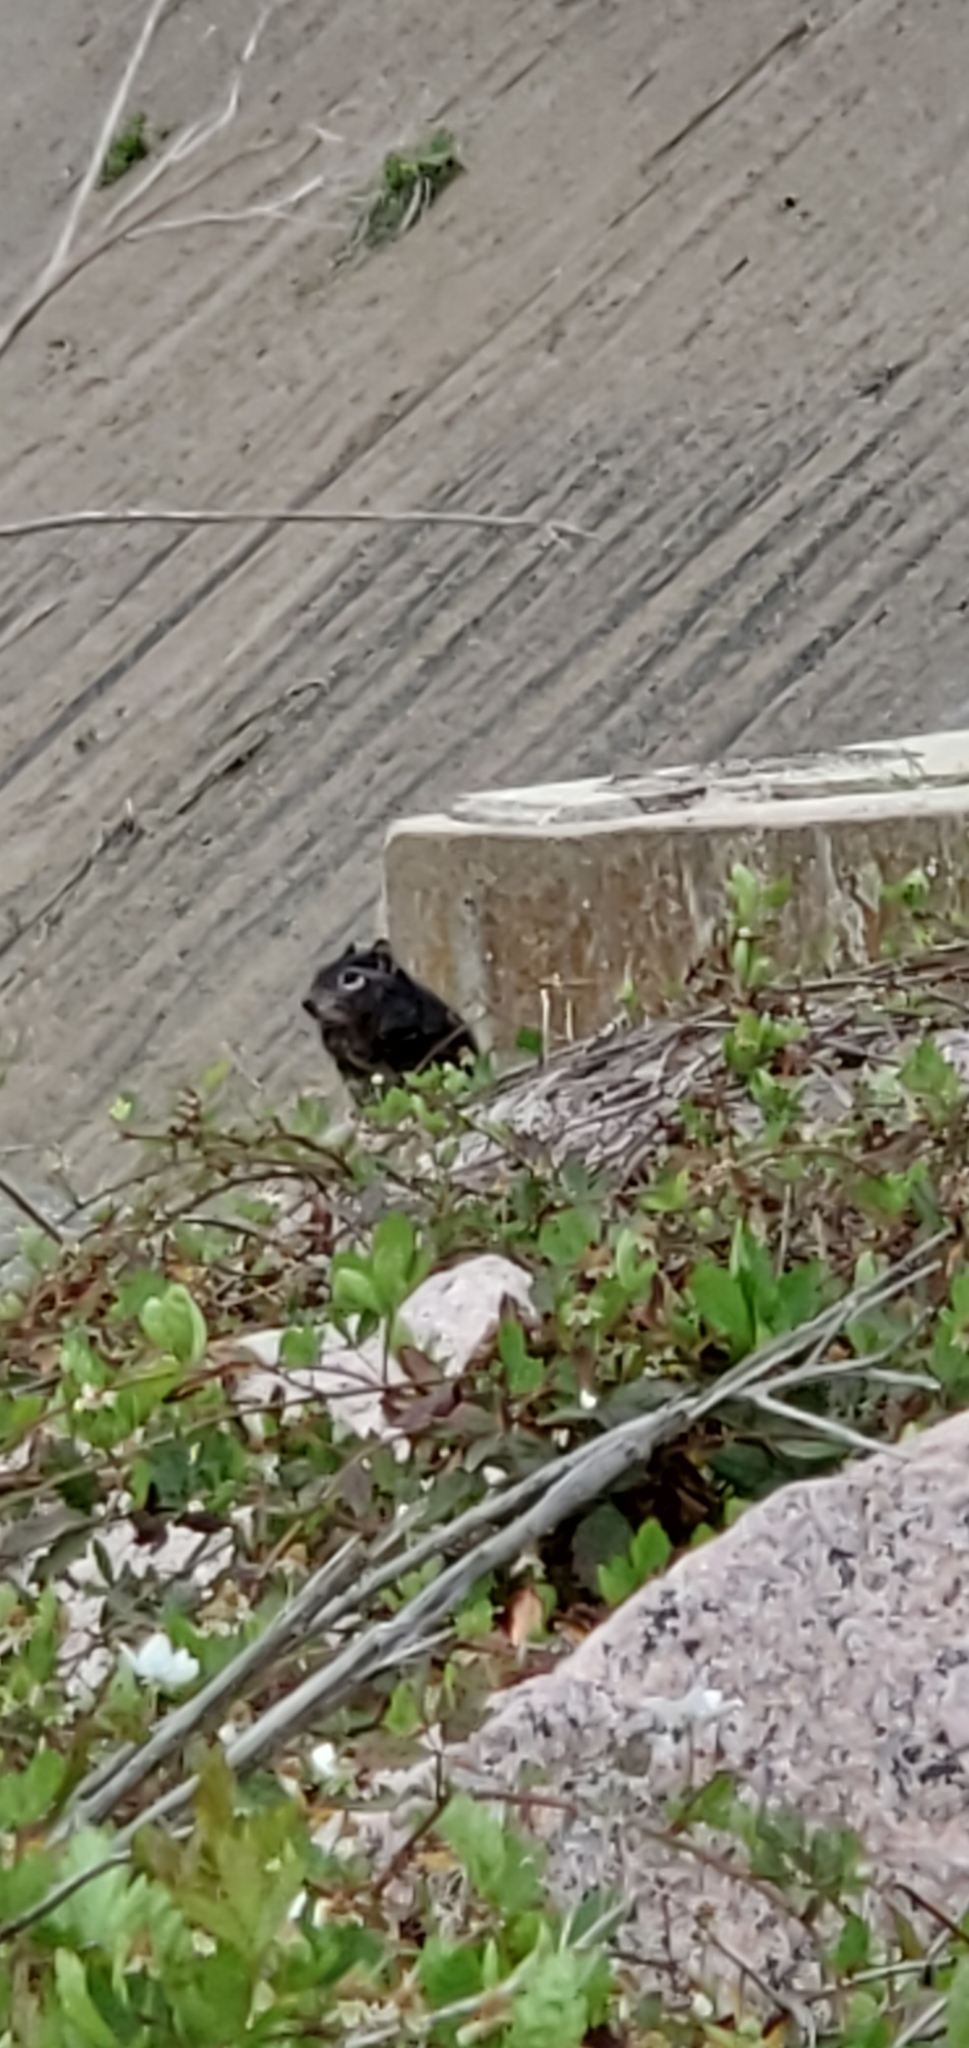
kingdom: Animalia
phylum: Chordata
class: Mammalia
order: Rodentia
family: Sciuridae
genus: Otospermophilus
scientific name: Otospermophilus variegatus
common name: Rock squirrel
